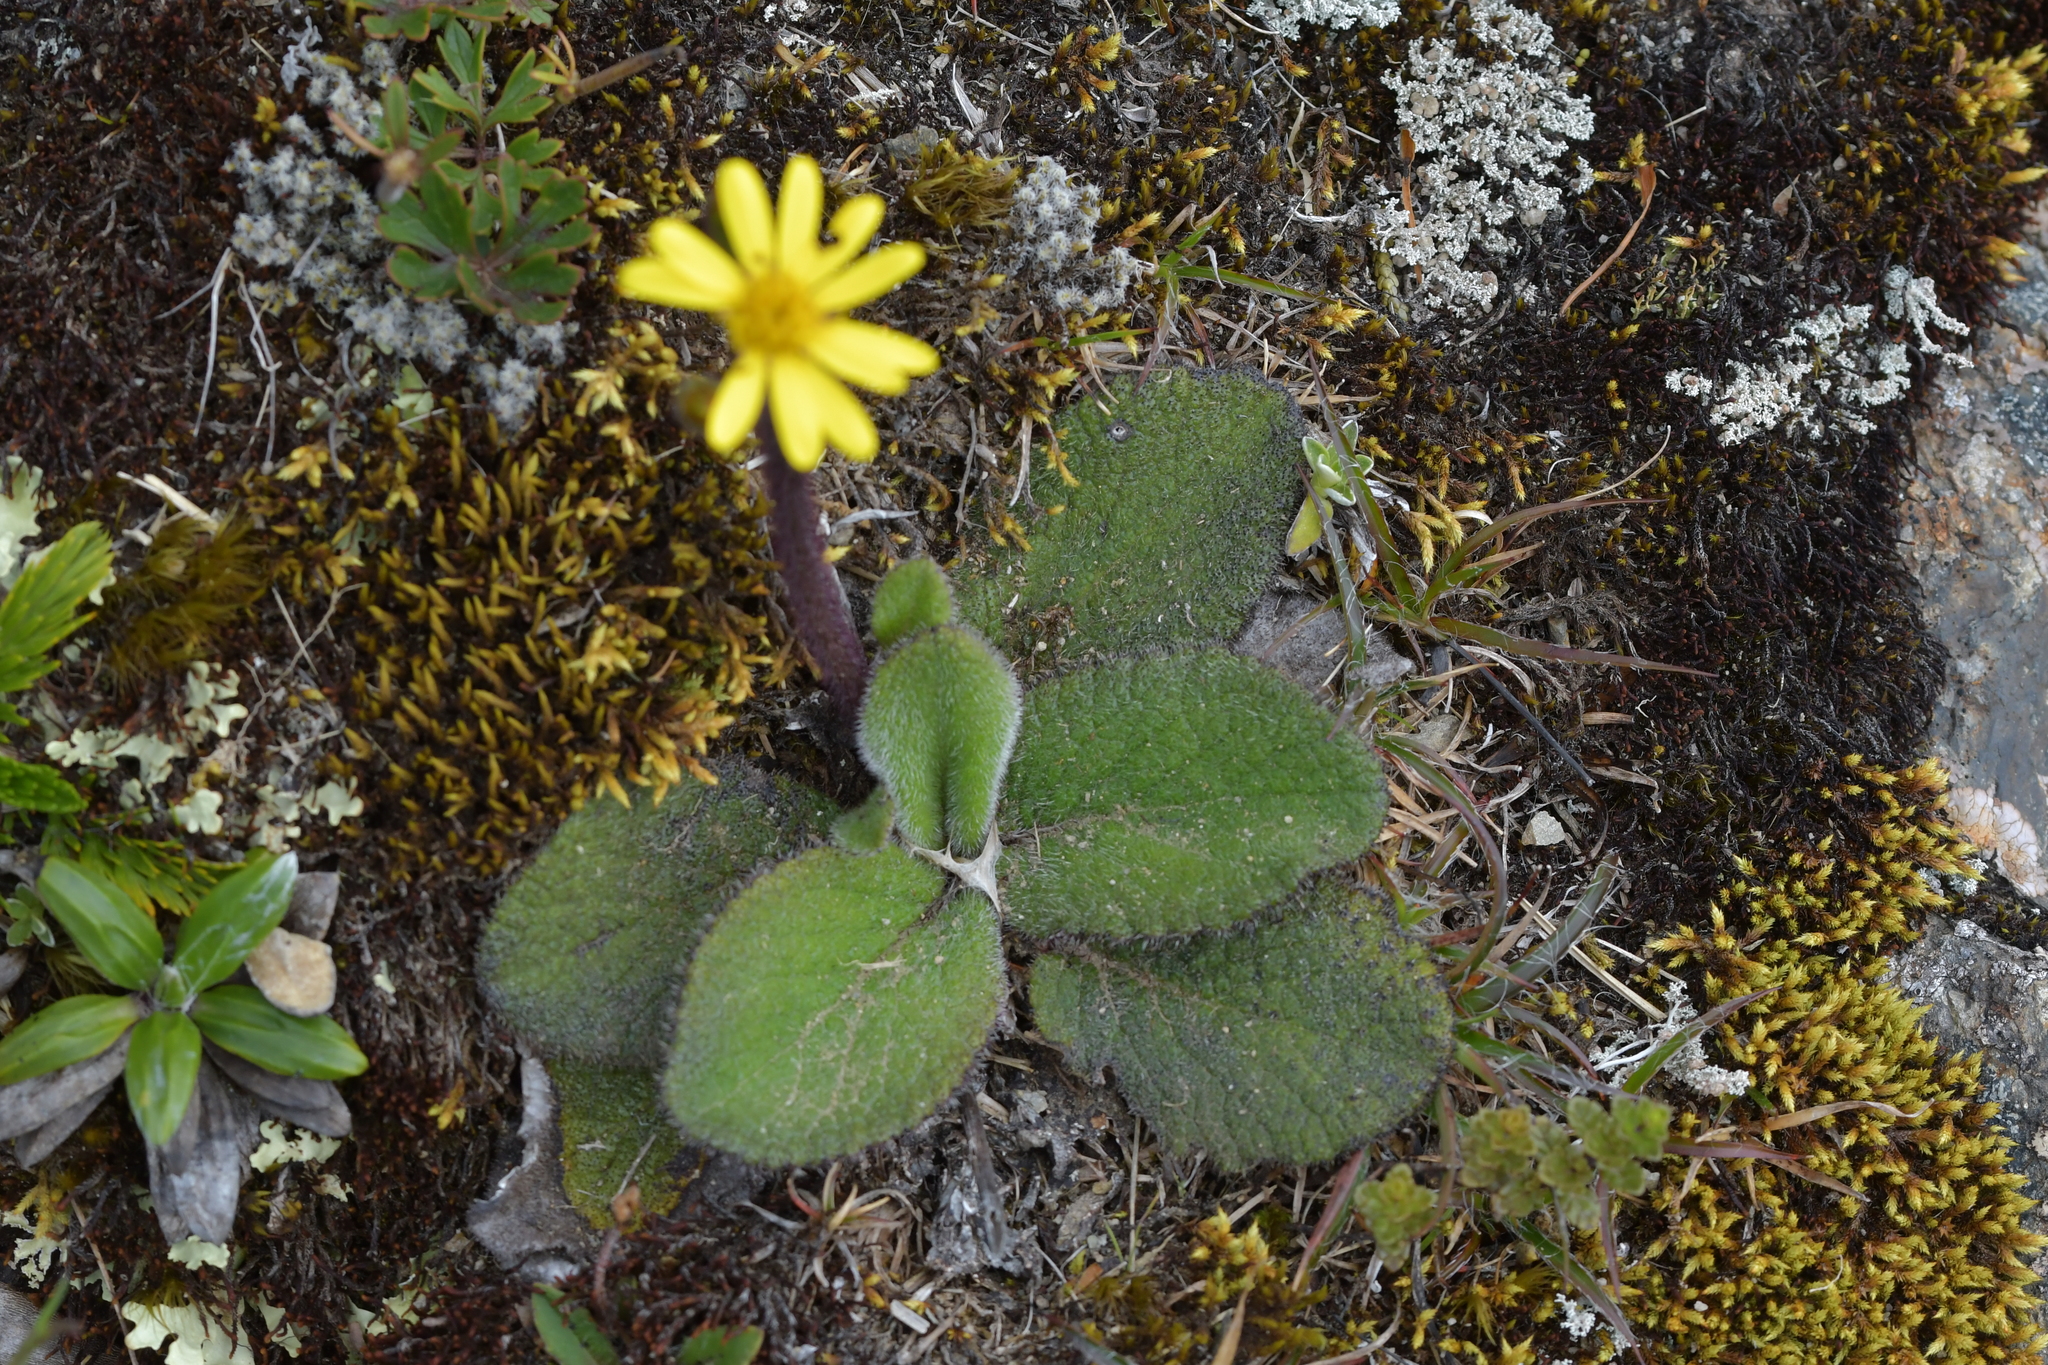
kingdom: Plantae
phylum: Tracheophyta
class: Magnoliopsida
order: Asterales
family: Asteraceae
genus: Brachyglottis
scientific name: Brachyglottis lagopus
